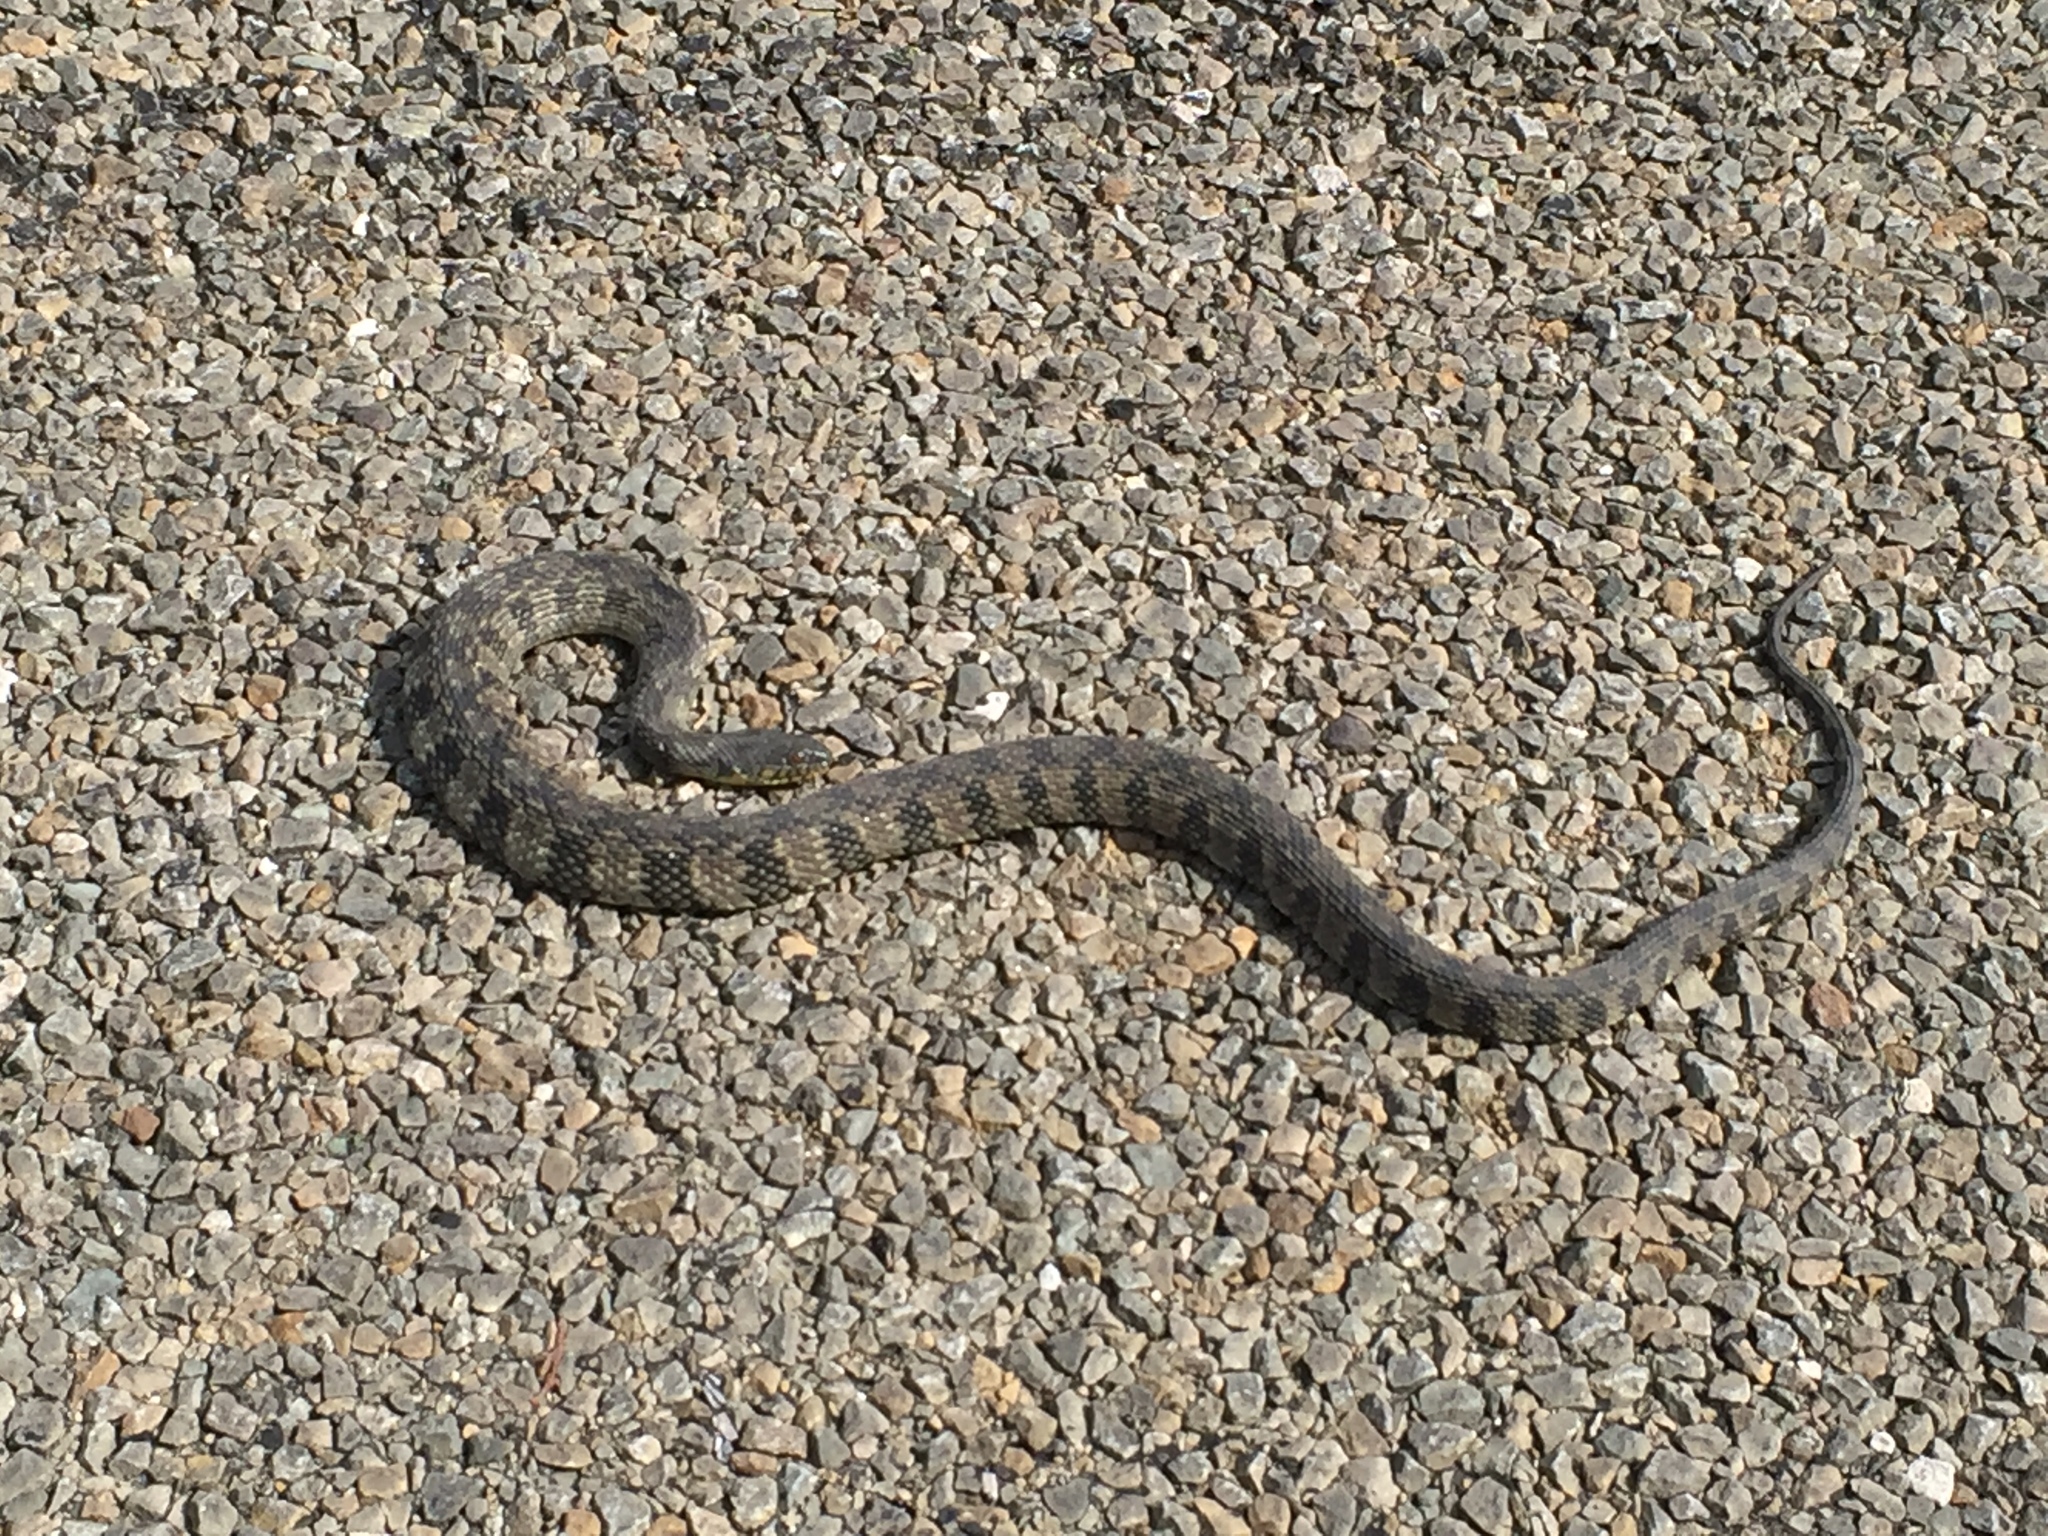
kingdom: Animalia
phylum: Chordata
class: Squamata
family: Colubridae
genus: Nerodia
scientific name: Nerodia rhombifer
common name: Diamondback water snake
